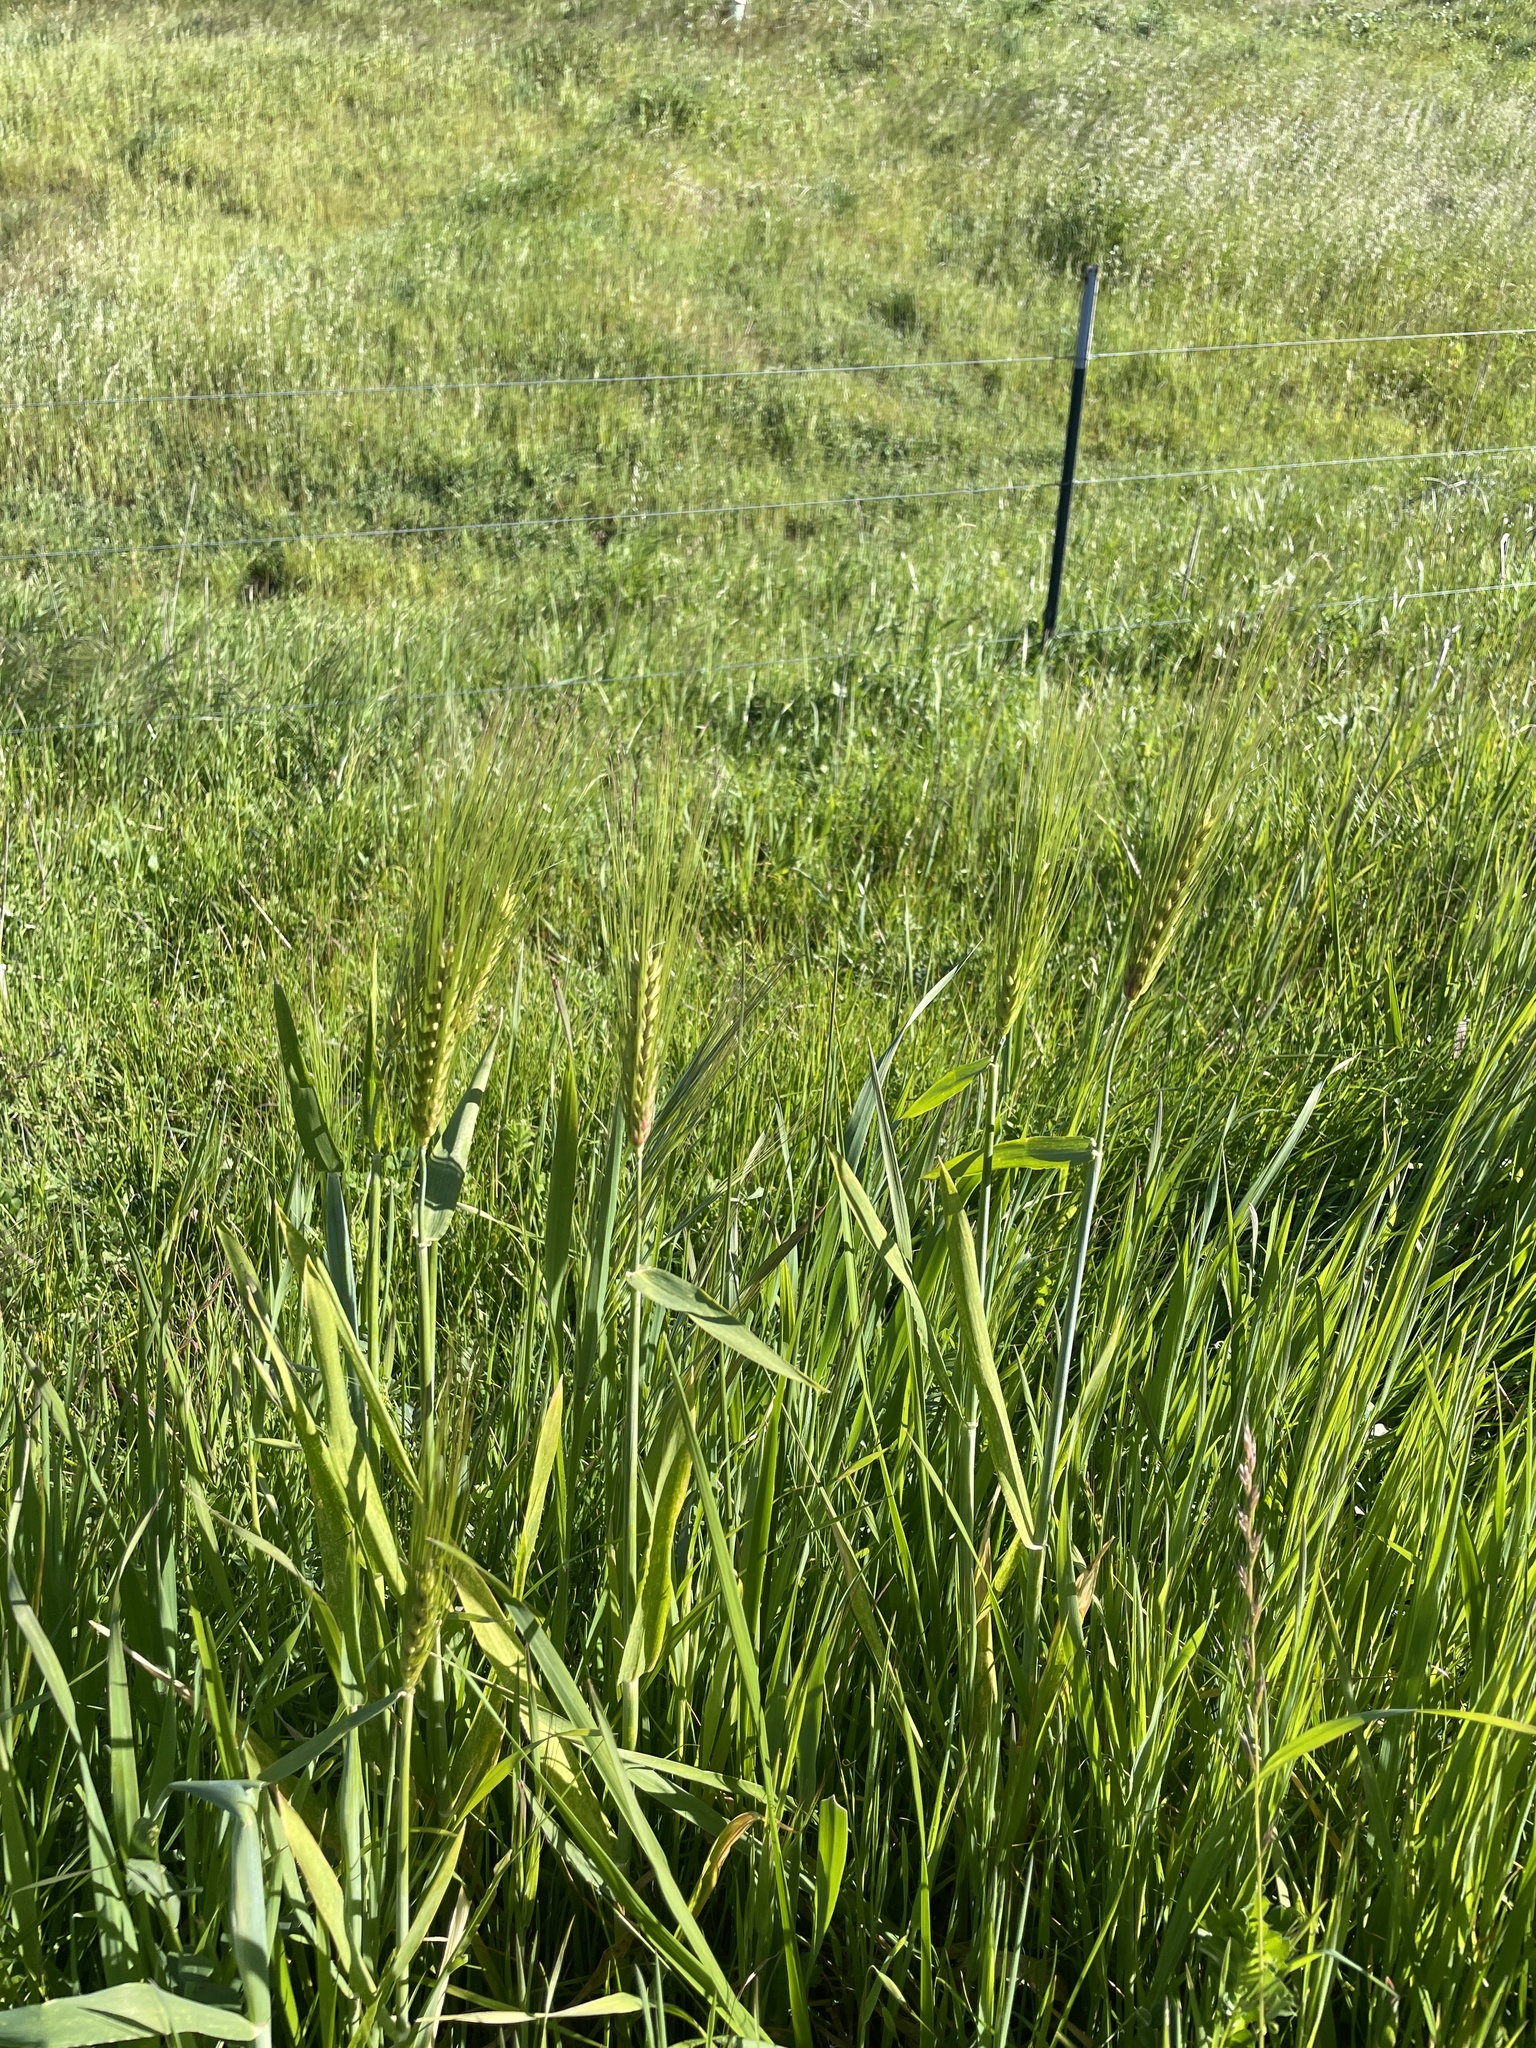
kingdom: Plantae
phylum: Tracheophyta
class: Liliopsida
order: Poales
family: Poaceae
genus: Hordeum
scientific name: Hordeum vulgare
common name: Common barley
